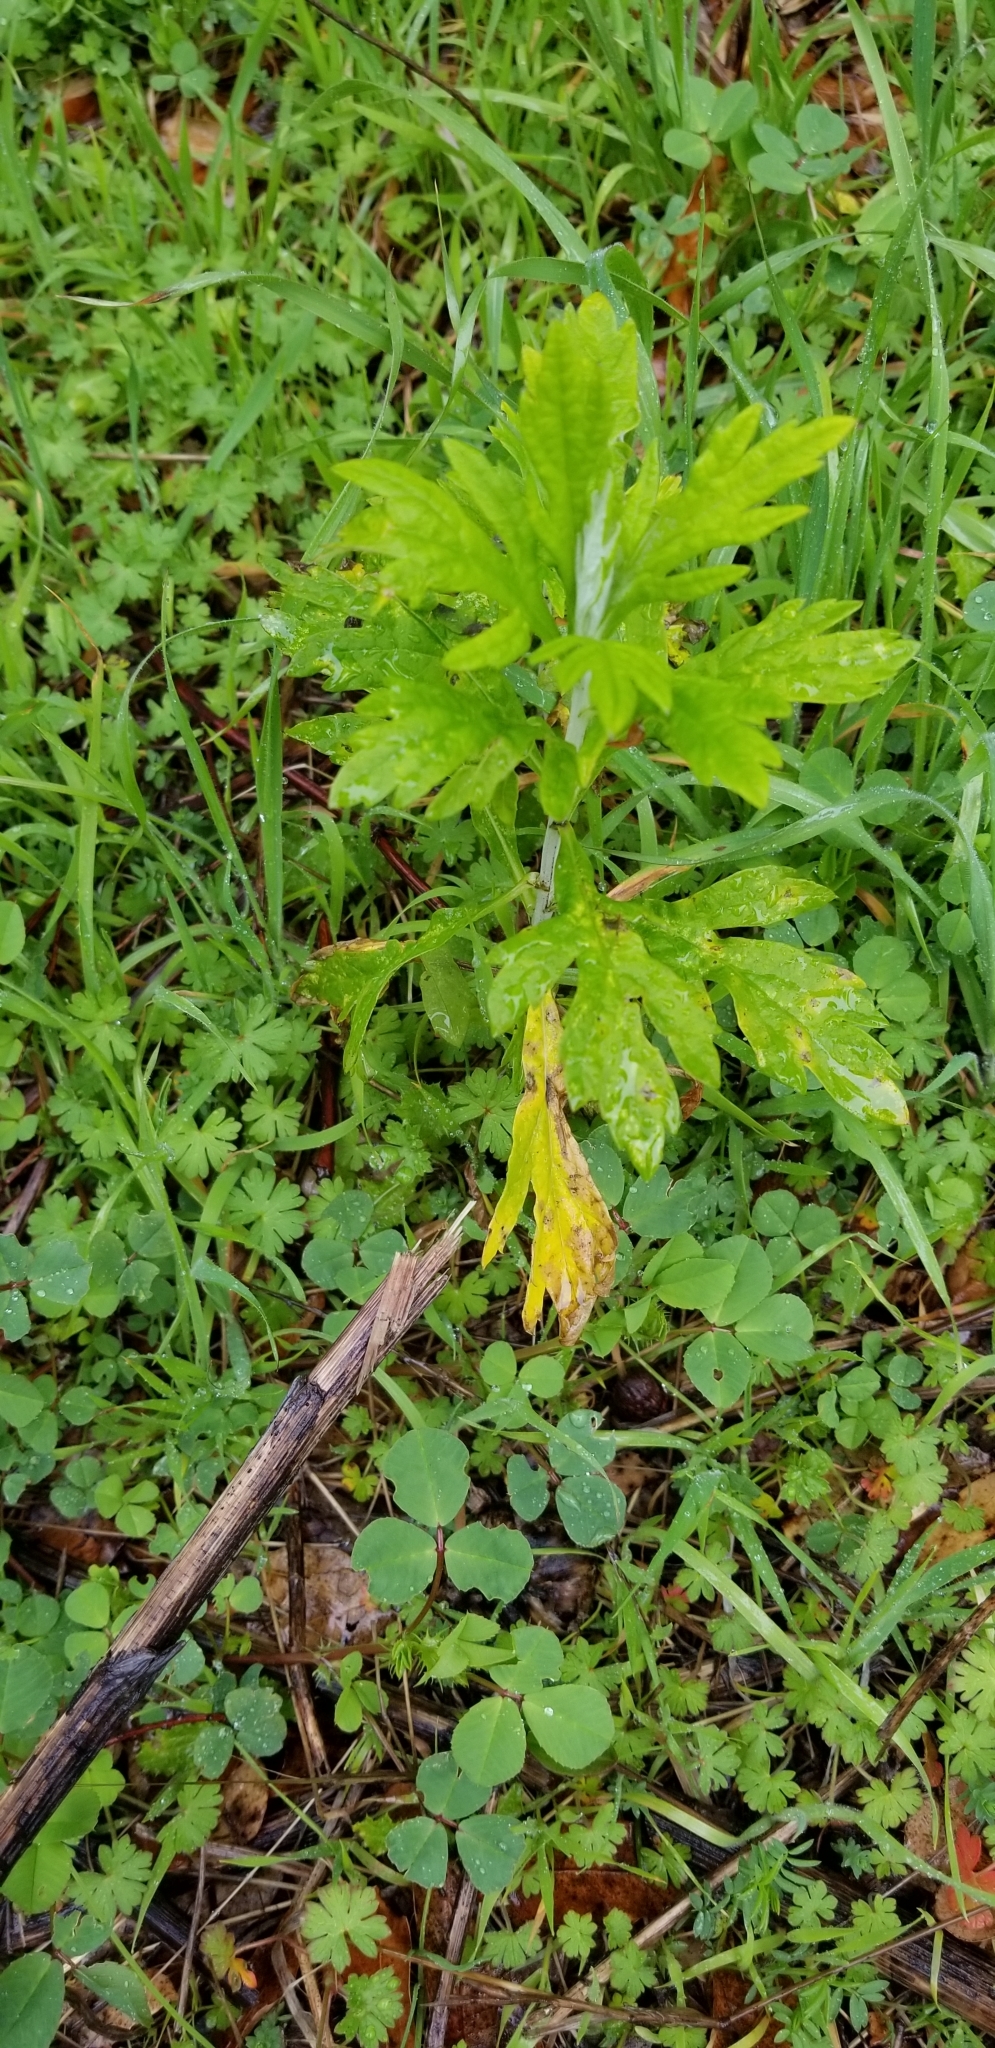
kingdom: Plantae
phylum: Tracheophyta
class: Magnoliopsida
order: Asterales
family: Asteraceae
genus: Artemisia
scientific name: Artemisia douglasiana
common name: Northwest mugwort
